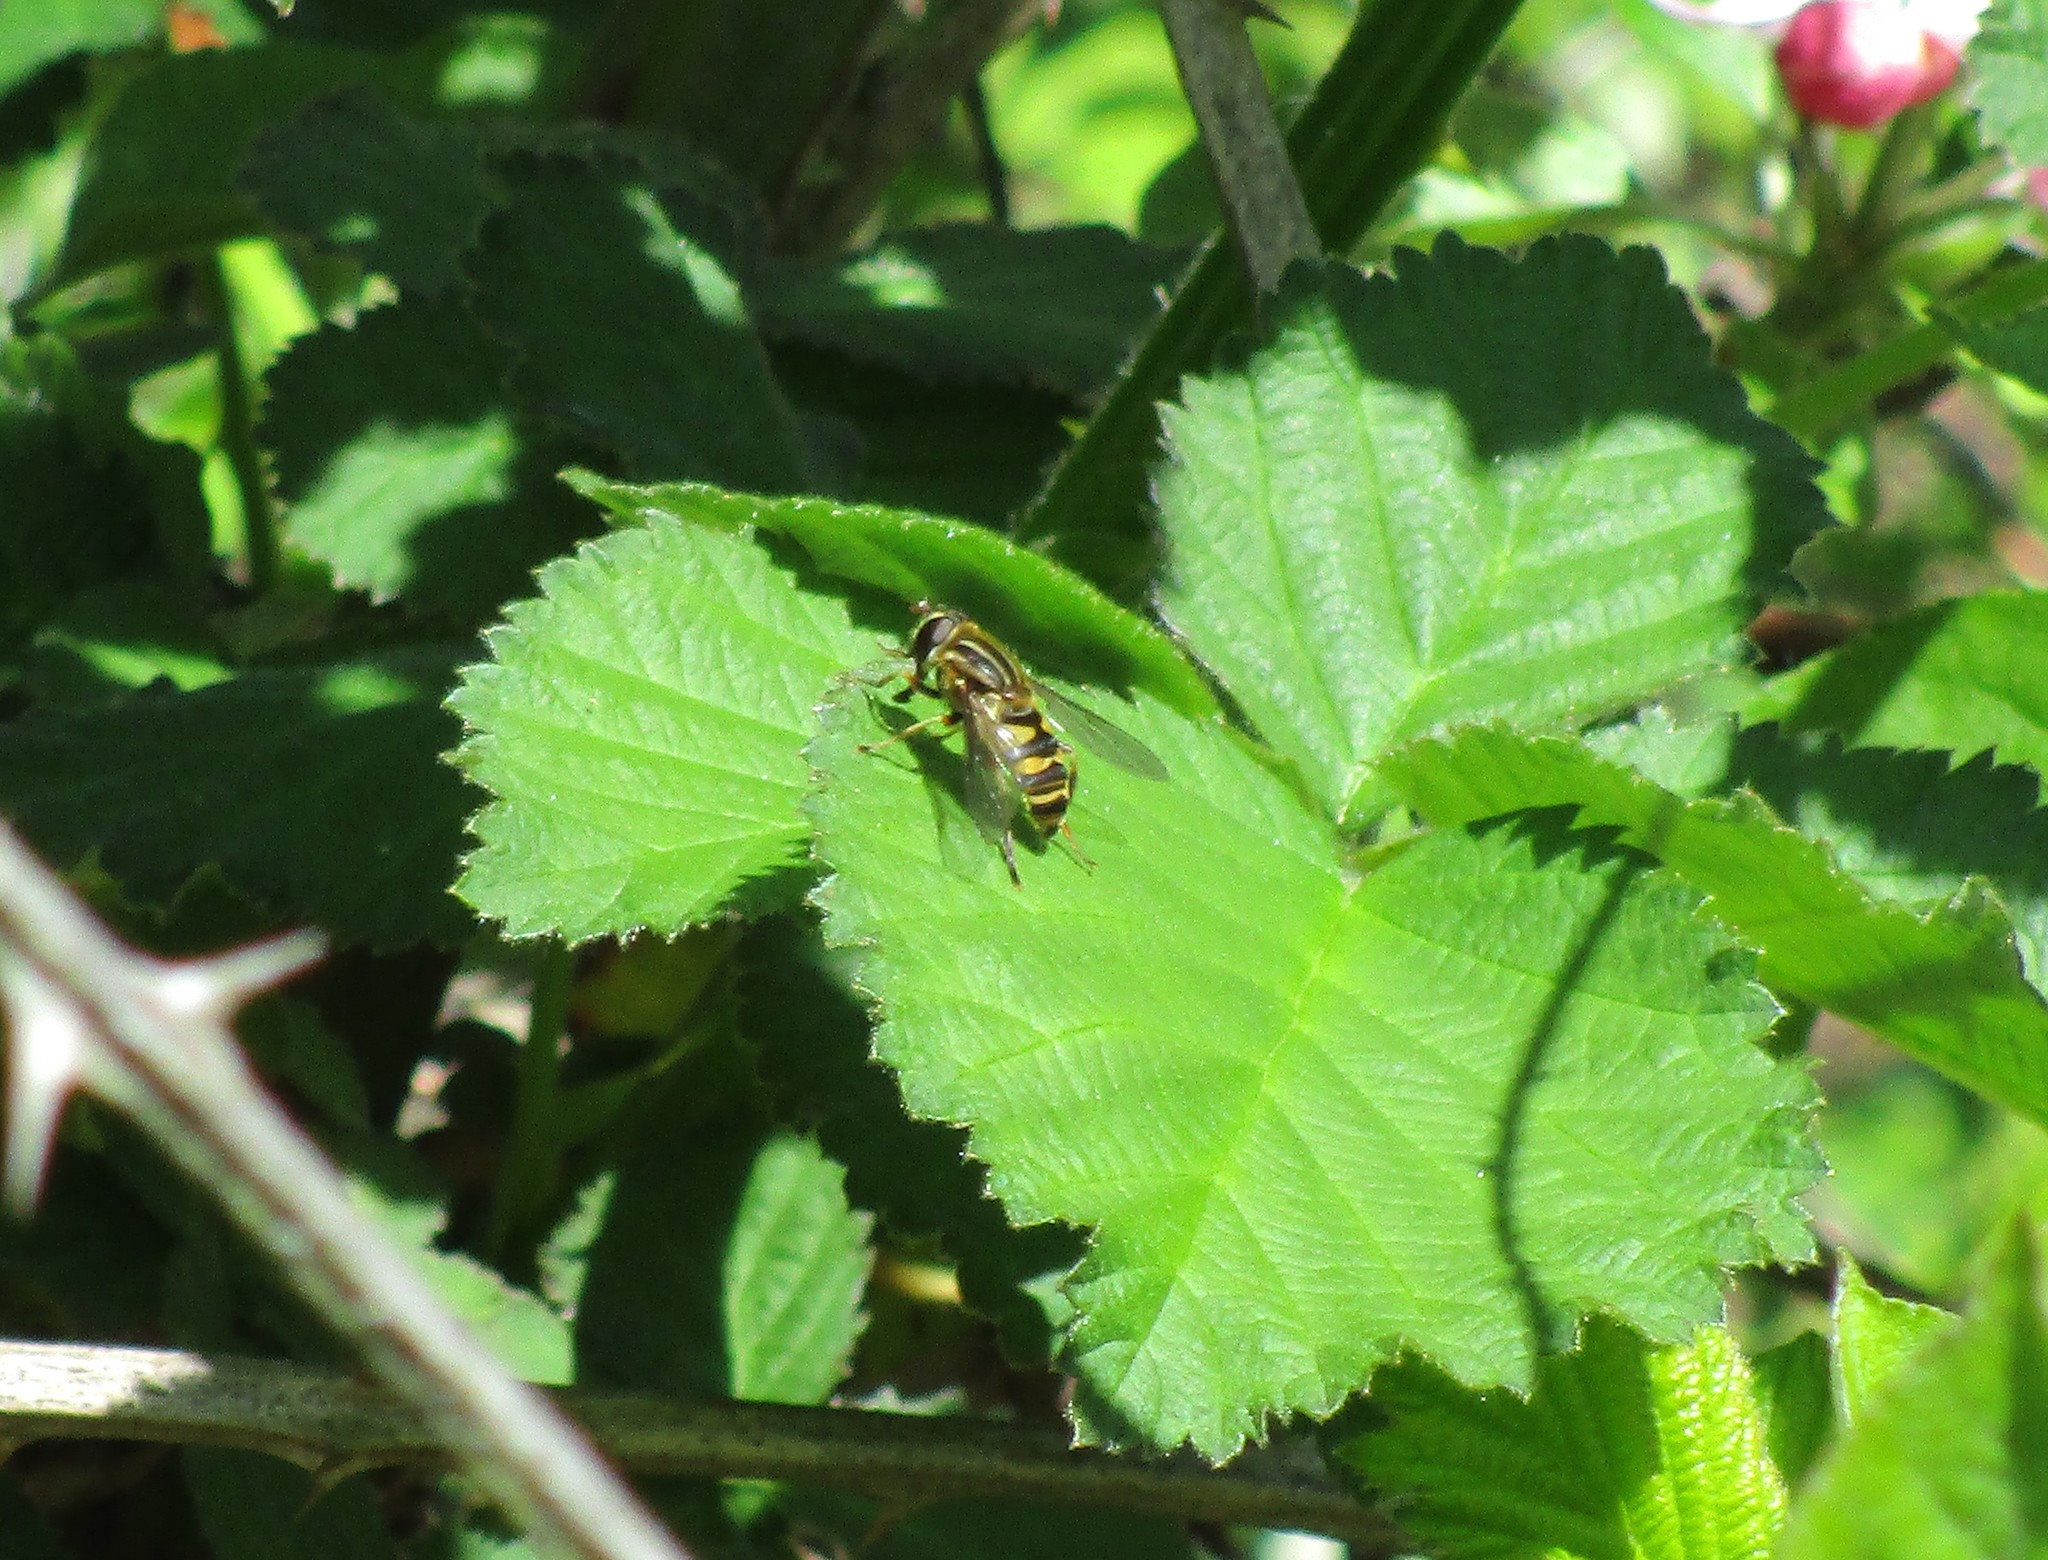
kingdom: Animalia
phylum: Arthropoda
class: Insecta
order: Diptera
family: Syrphidae
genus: Helophilus
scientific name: Helophilus fasciatus
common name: Narrow-headed marsh fly
